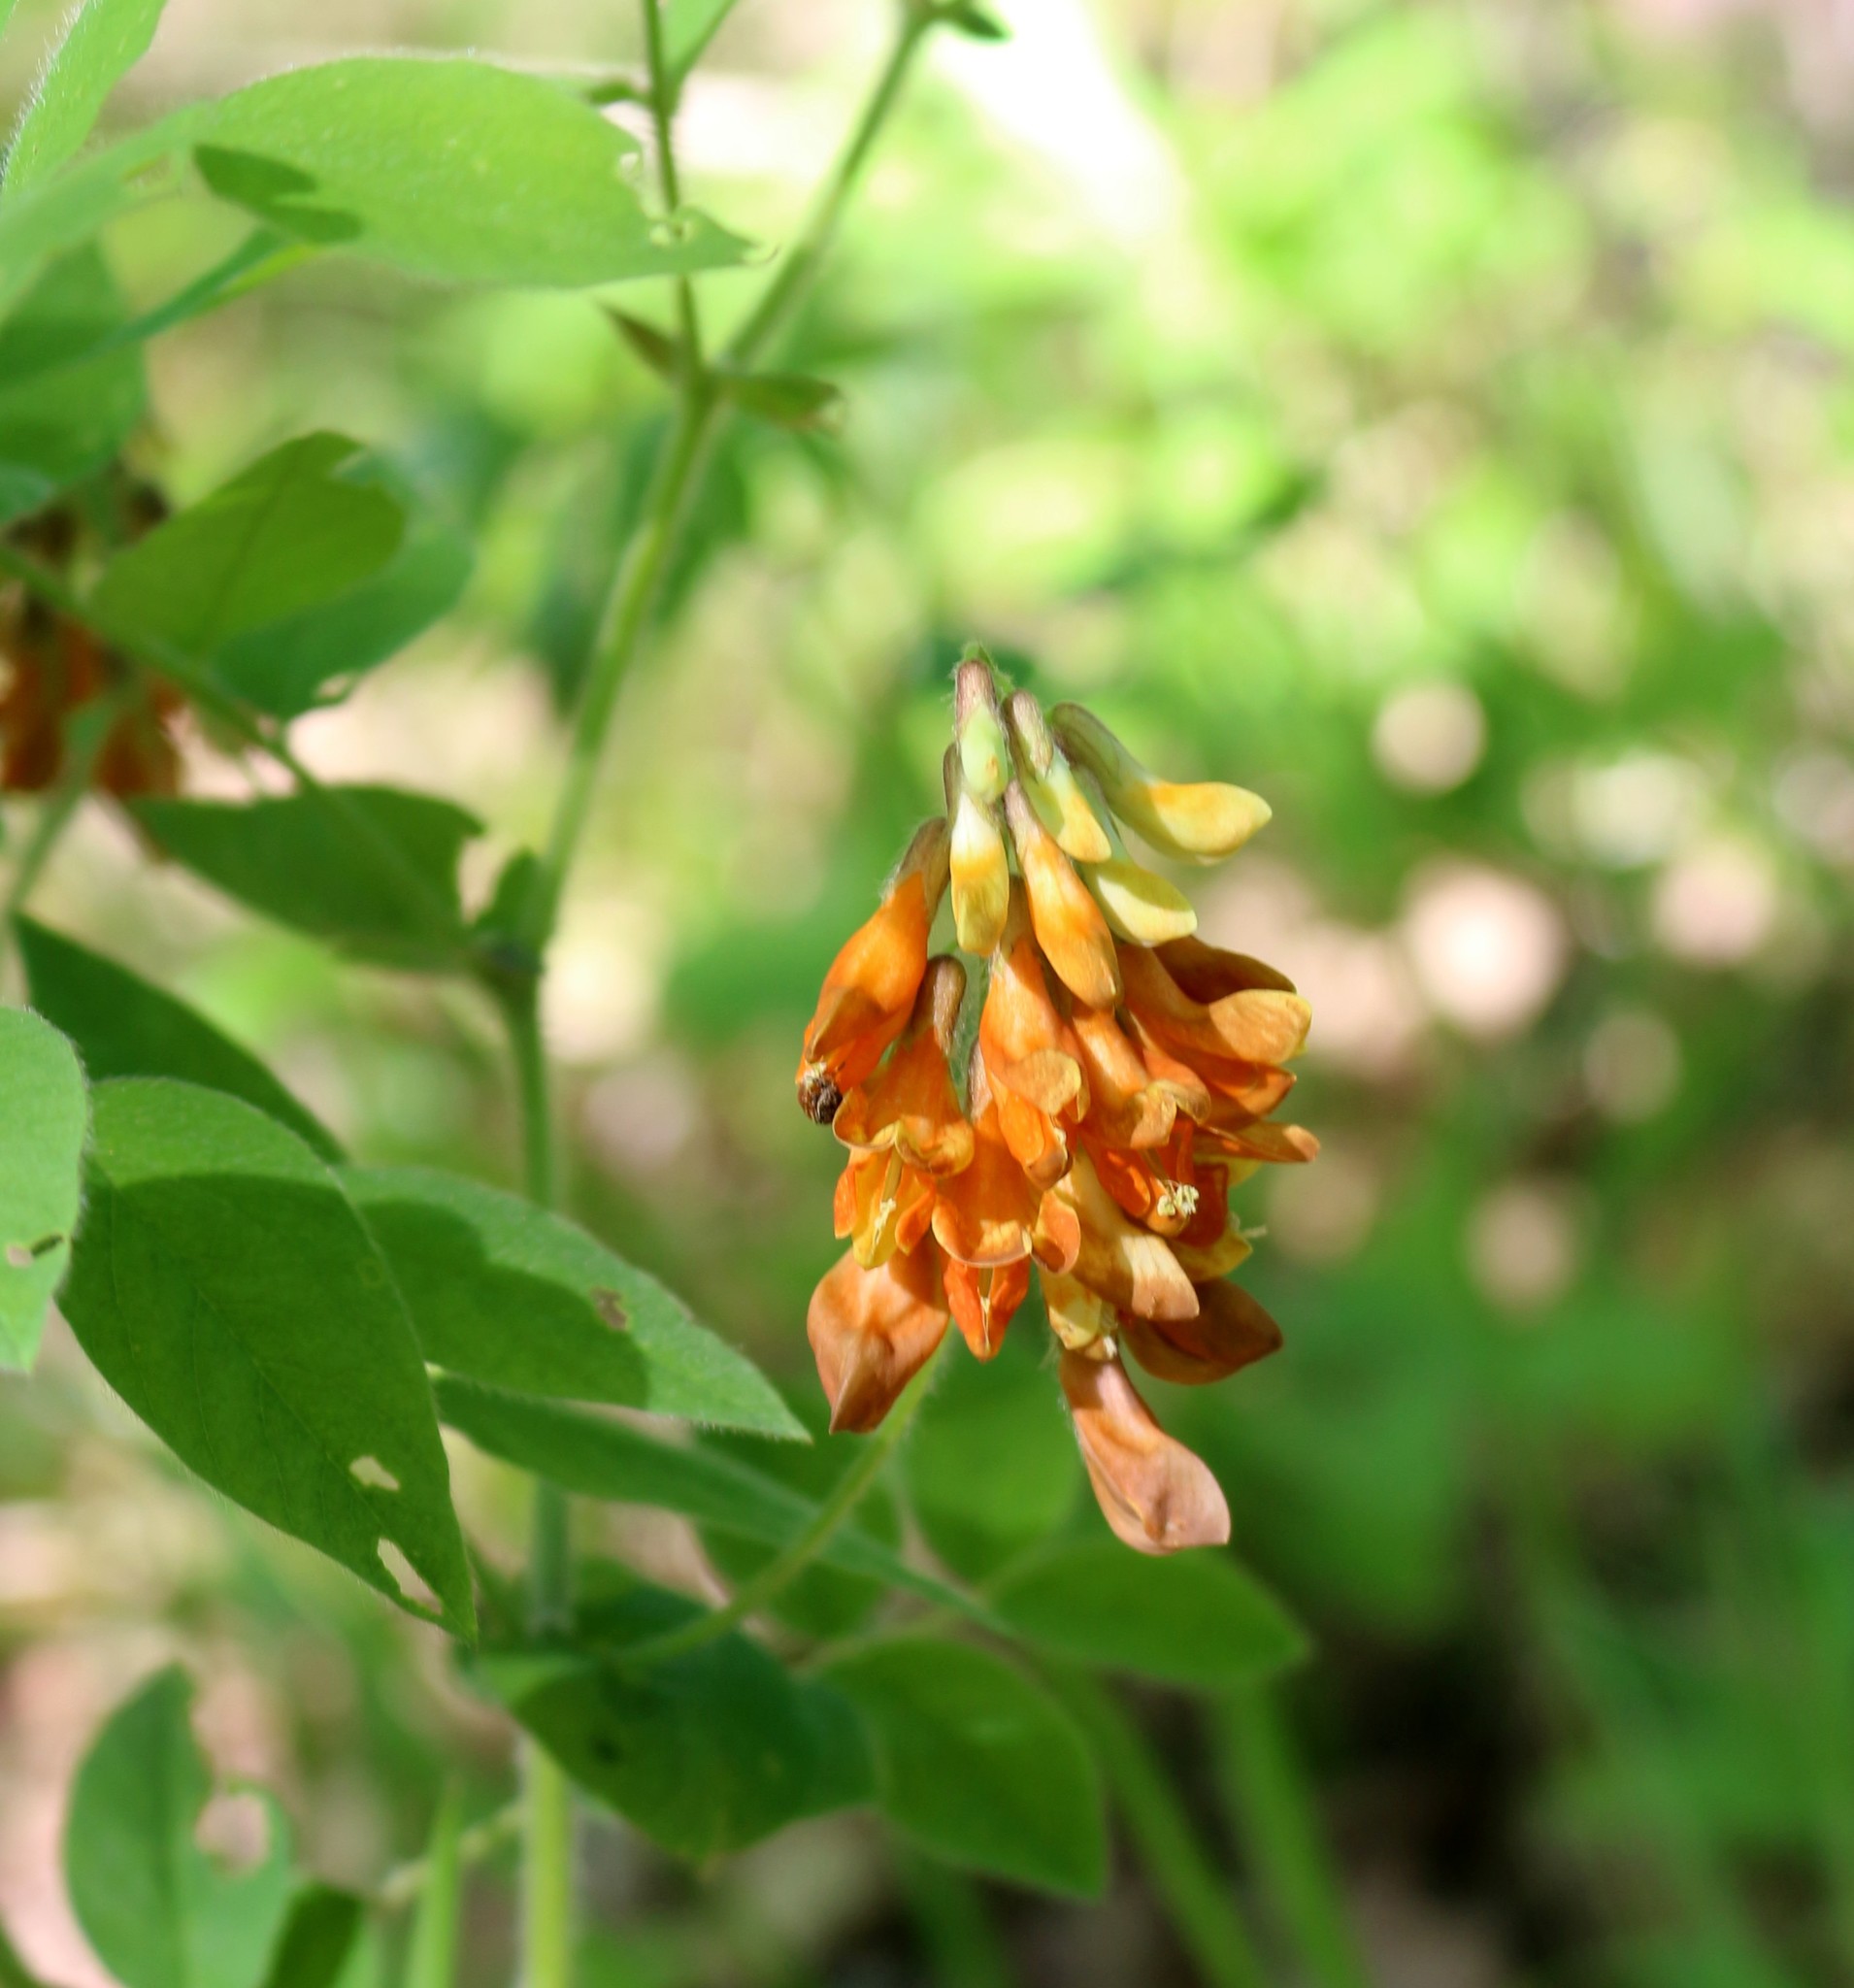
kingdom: Plantae
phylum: Tracheophyta
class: Magnoliopsida
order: Fabales
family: Fabaceae
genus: Vicia
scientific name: Vicia crocea
